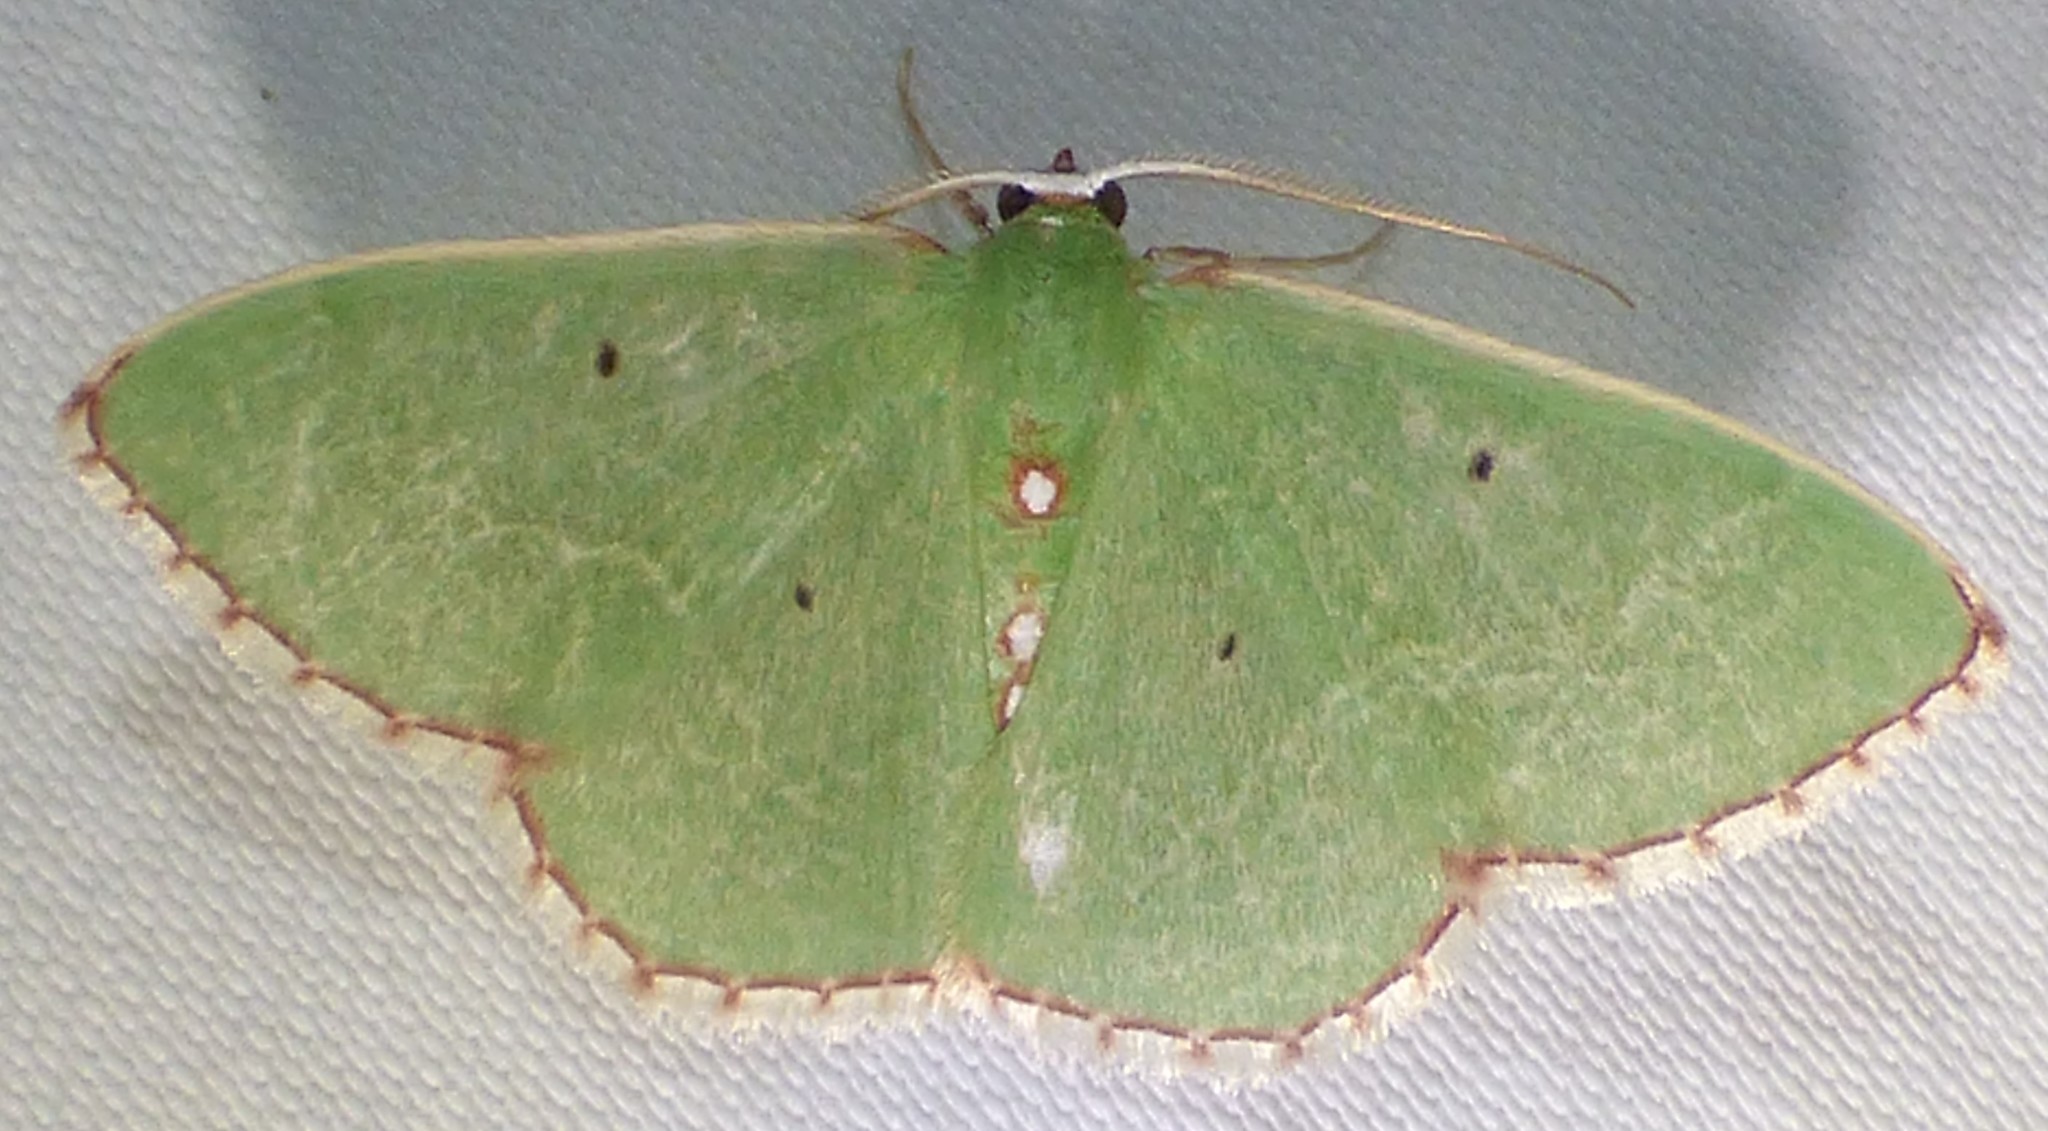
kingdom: Animalia
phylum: Arthropoda
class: Insecta
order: Lepidoptera
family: Geometridae
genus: Nemoria
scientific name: Nemoria lixaria
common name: Red-bordered emerald
